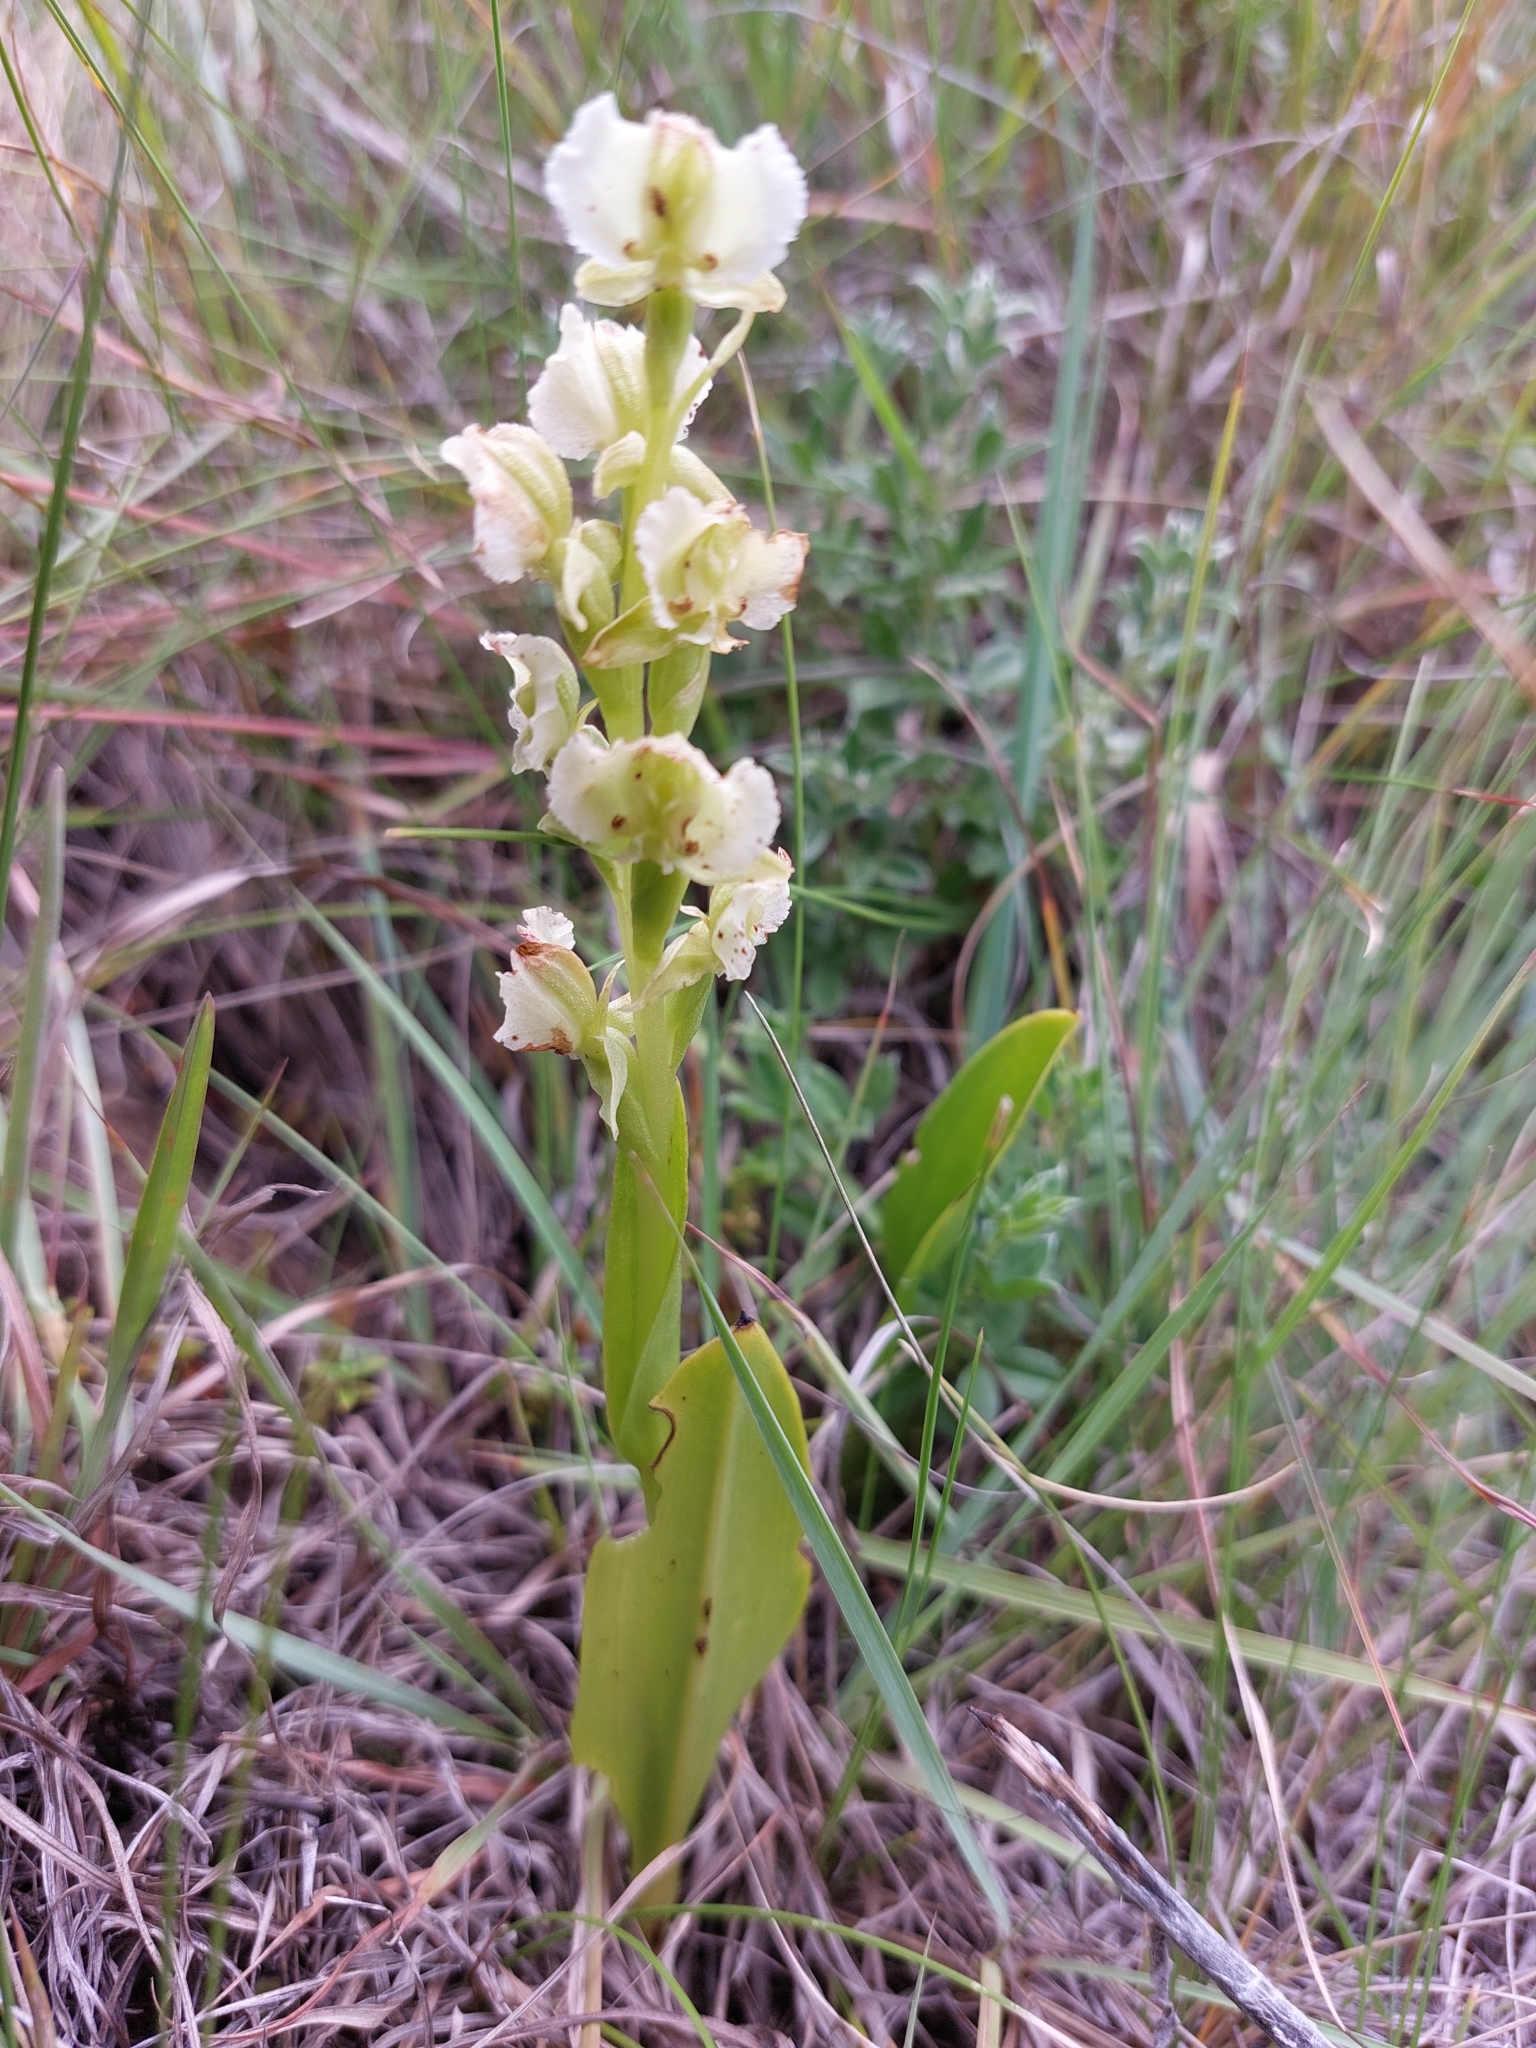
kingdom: Plantae
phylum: Tracheophyta
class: Liliopsida
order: Asparagales
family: Orchidaceae
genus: Pterygodium
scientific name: Pterygodium hastatum
